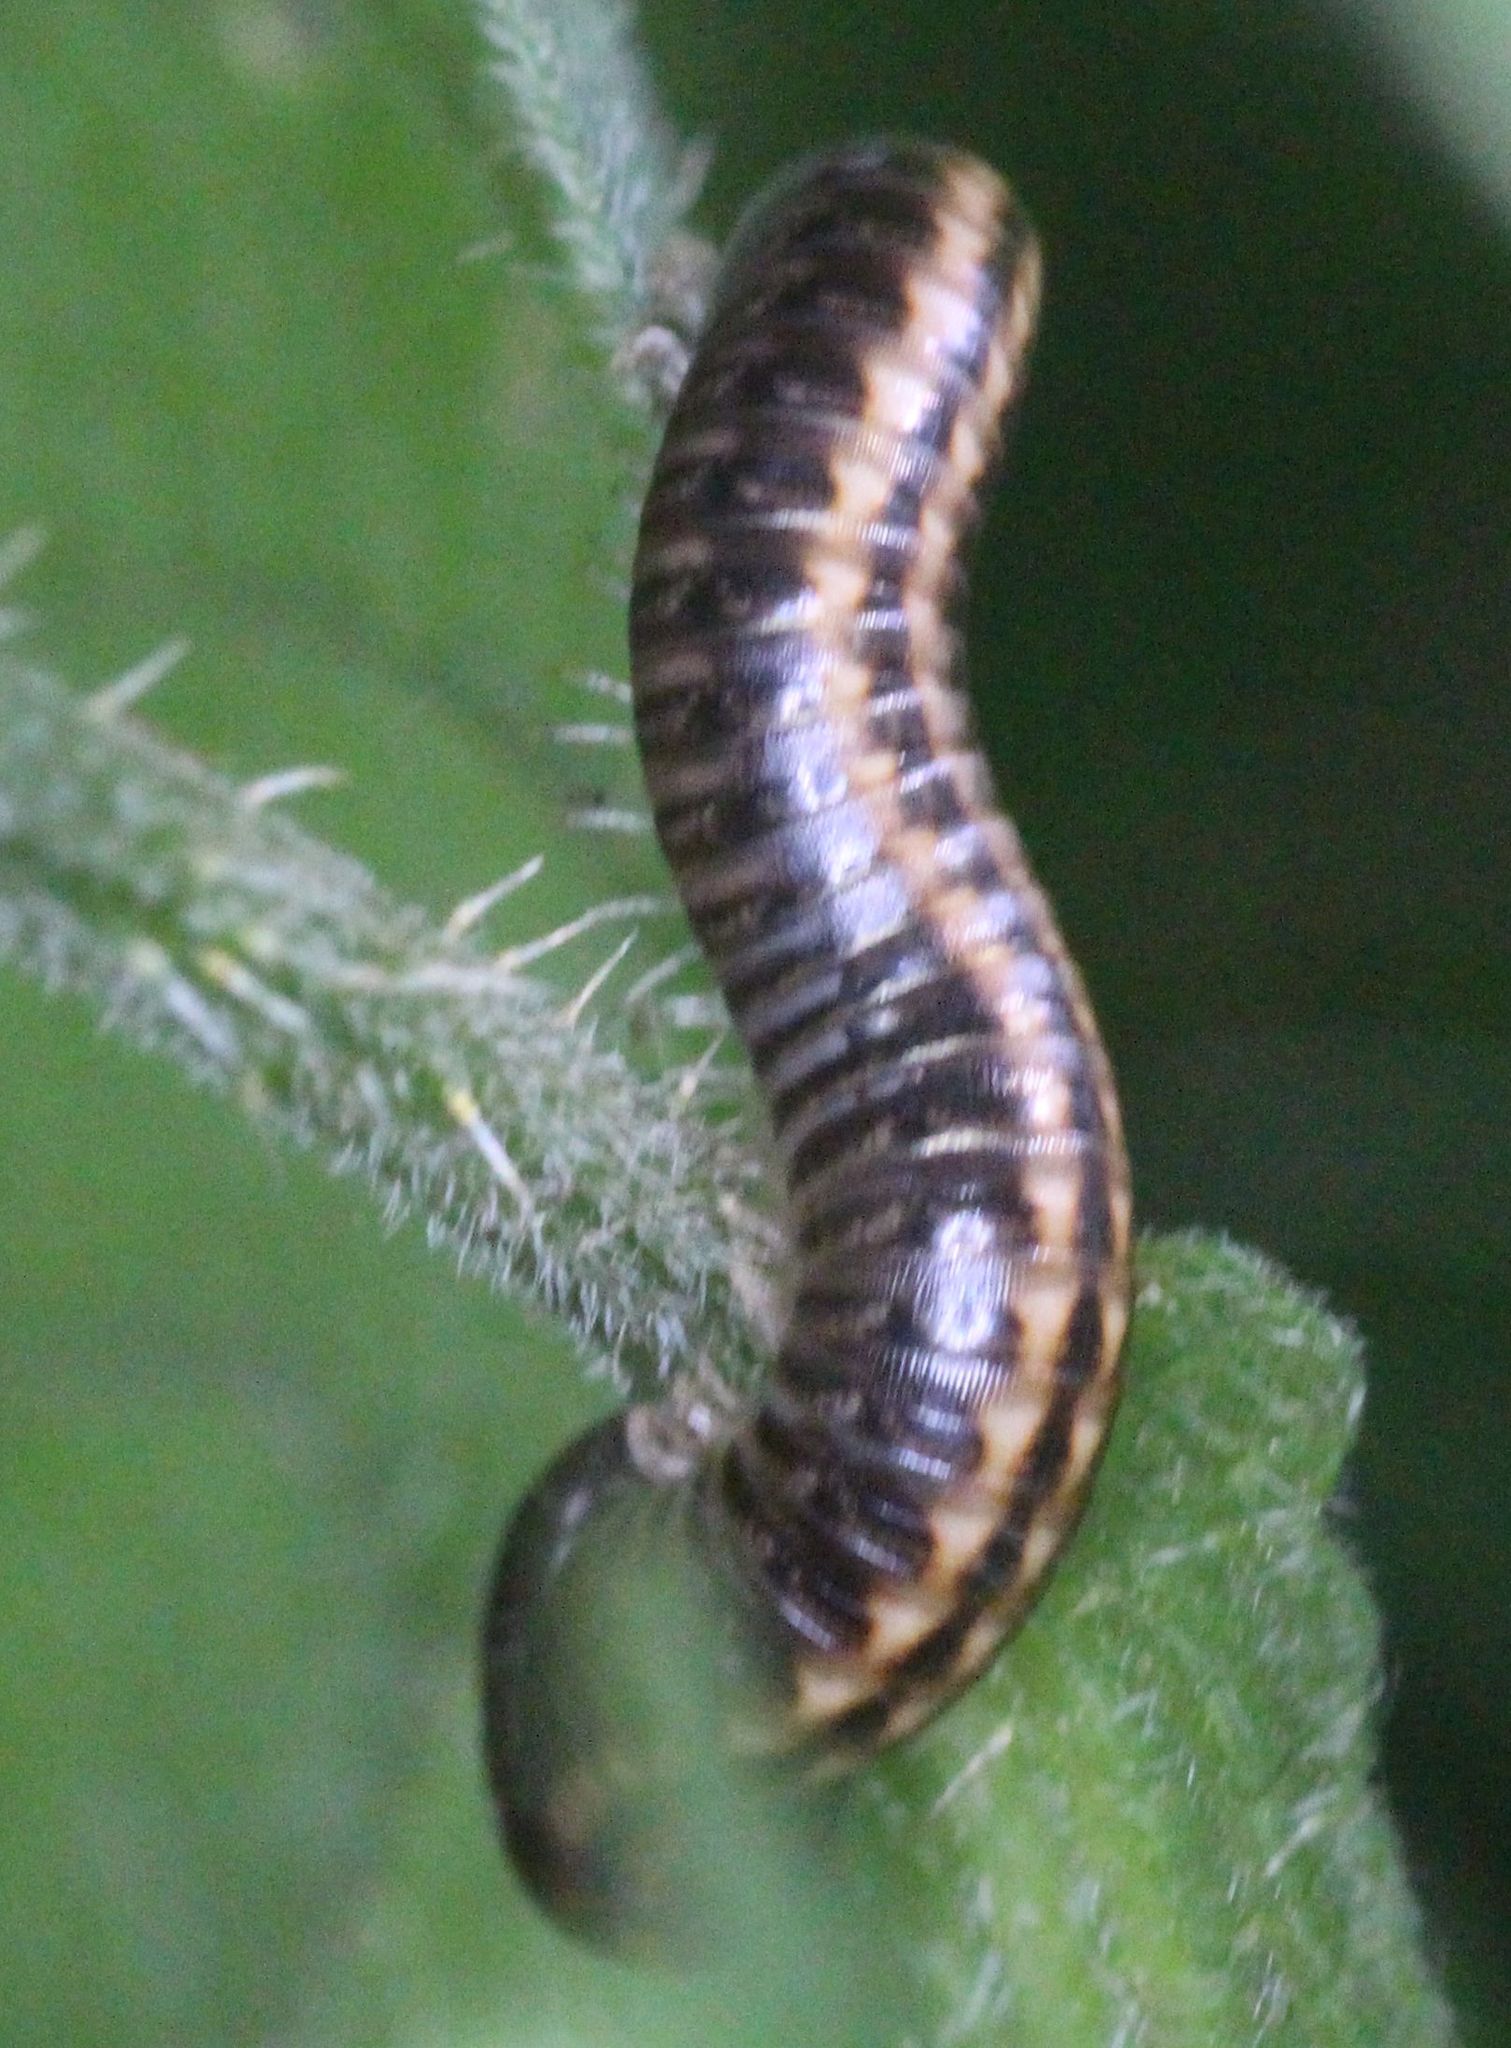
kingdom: Animalia
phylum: Arthropoda
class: Diplopoda
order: Julida
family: Julidae
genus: Ommatoiulus
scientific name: Ommatoiulus sabulosus
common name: Striped millipede
